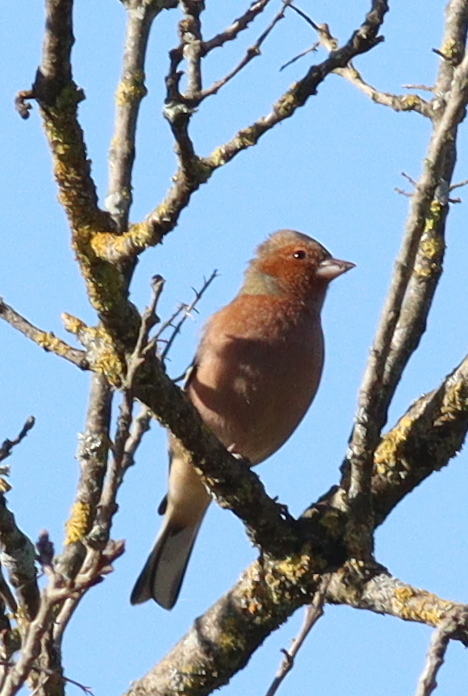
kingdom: Animalia
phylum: Chordata
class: Aves
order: Passeriformes
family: Fringillidae
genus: Fringilla
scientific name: Fringilla coelebs
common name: Common chaffinch
